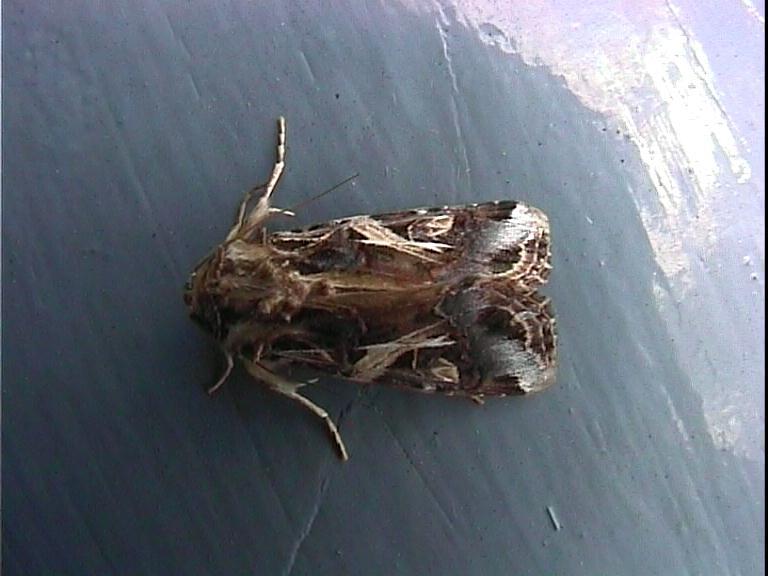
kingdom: Animalia
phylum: Arthropoda
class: Insecta
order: Lepidoptera
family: Noctuidae
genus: Spodoptera
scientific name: Spodoptera litura
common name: Asian cotton leafworm
